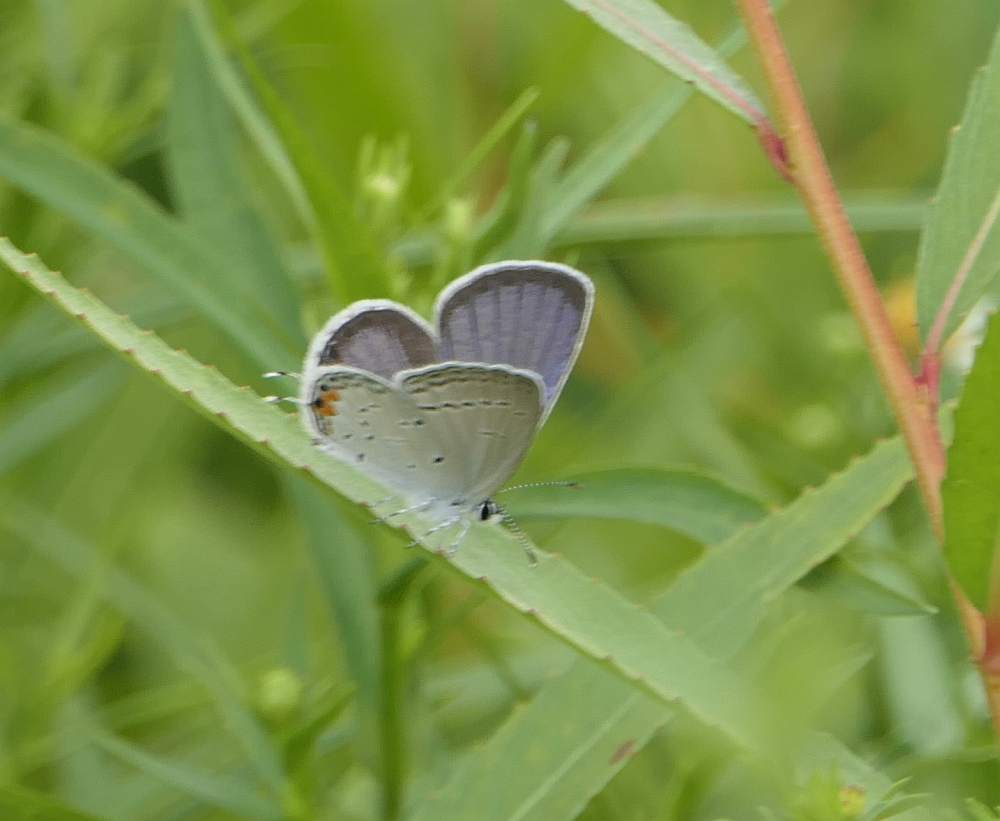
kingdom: Animalia
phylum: Arthropoda
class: Insecta
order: Lepidoptera
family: Lycaenidae
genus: Elkalyce
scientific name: Elkalyce comyntas
